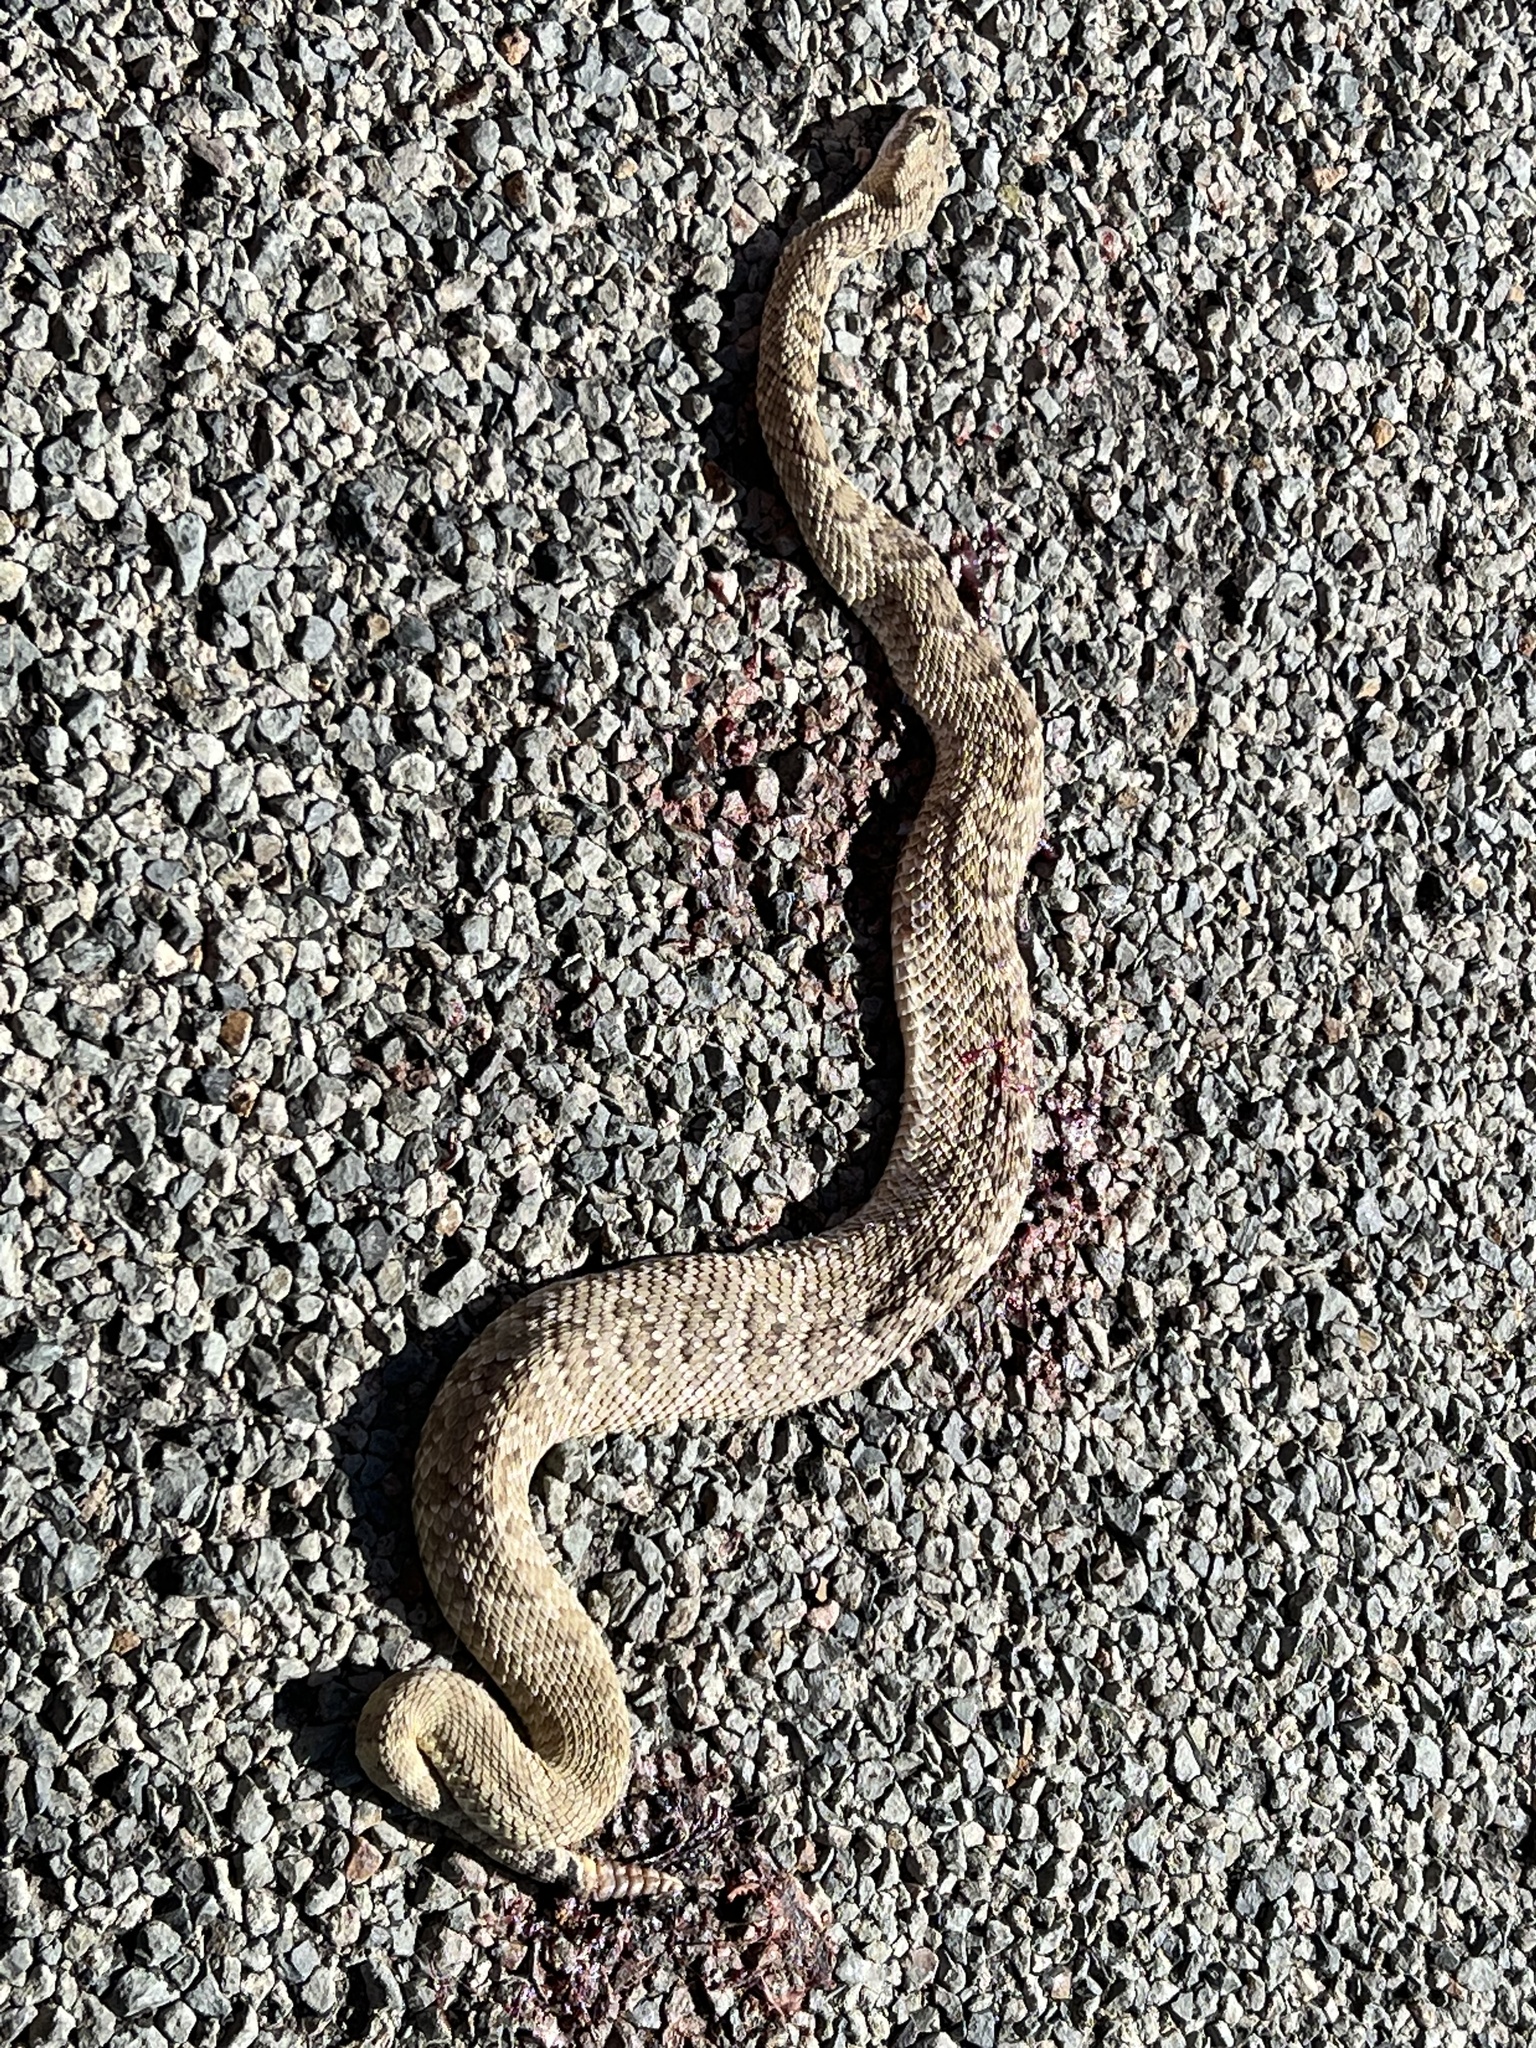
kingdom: Animalia
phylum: Chordata
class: Squamata
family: Viperidae
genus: Crotalus
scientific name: Crotalus scutulatus
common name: Scutulatus
